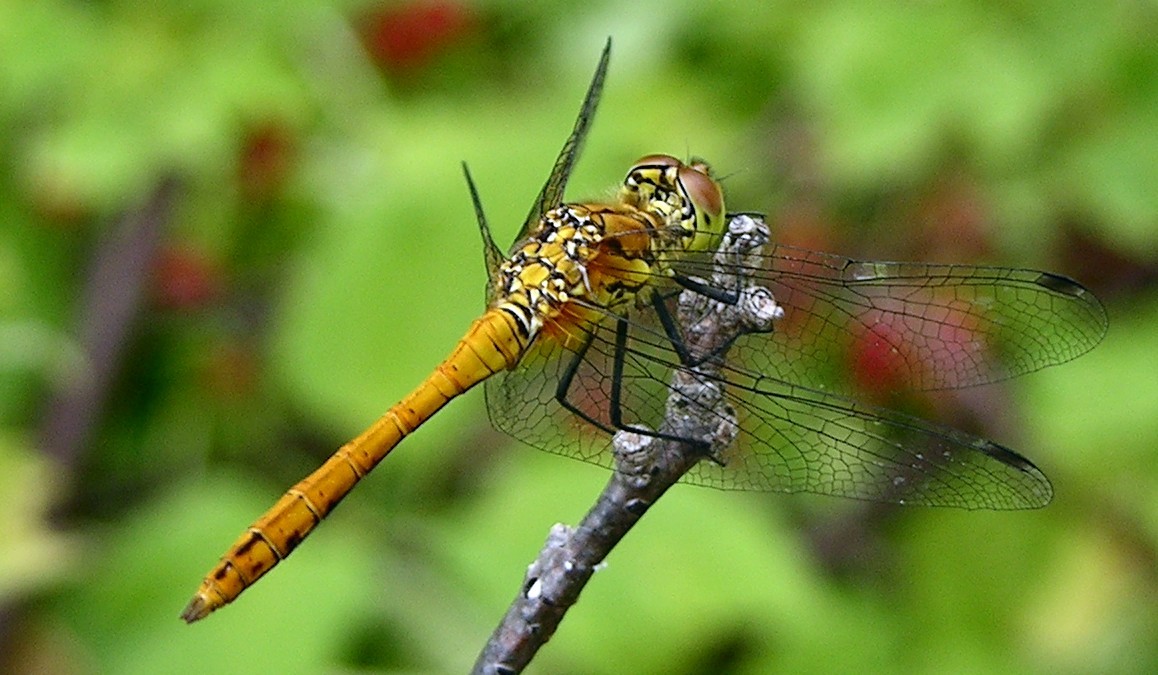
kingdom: Animalia
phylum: Arthropoda
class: Insecta
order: Odonata
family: Libellulidae
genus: Sympetrum
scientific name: Sympetrum sanguineum
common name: Ruddy darter
